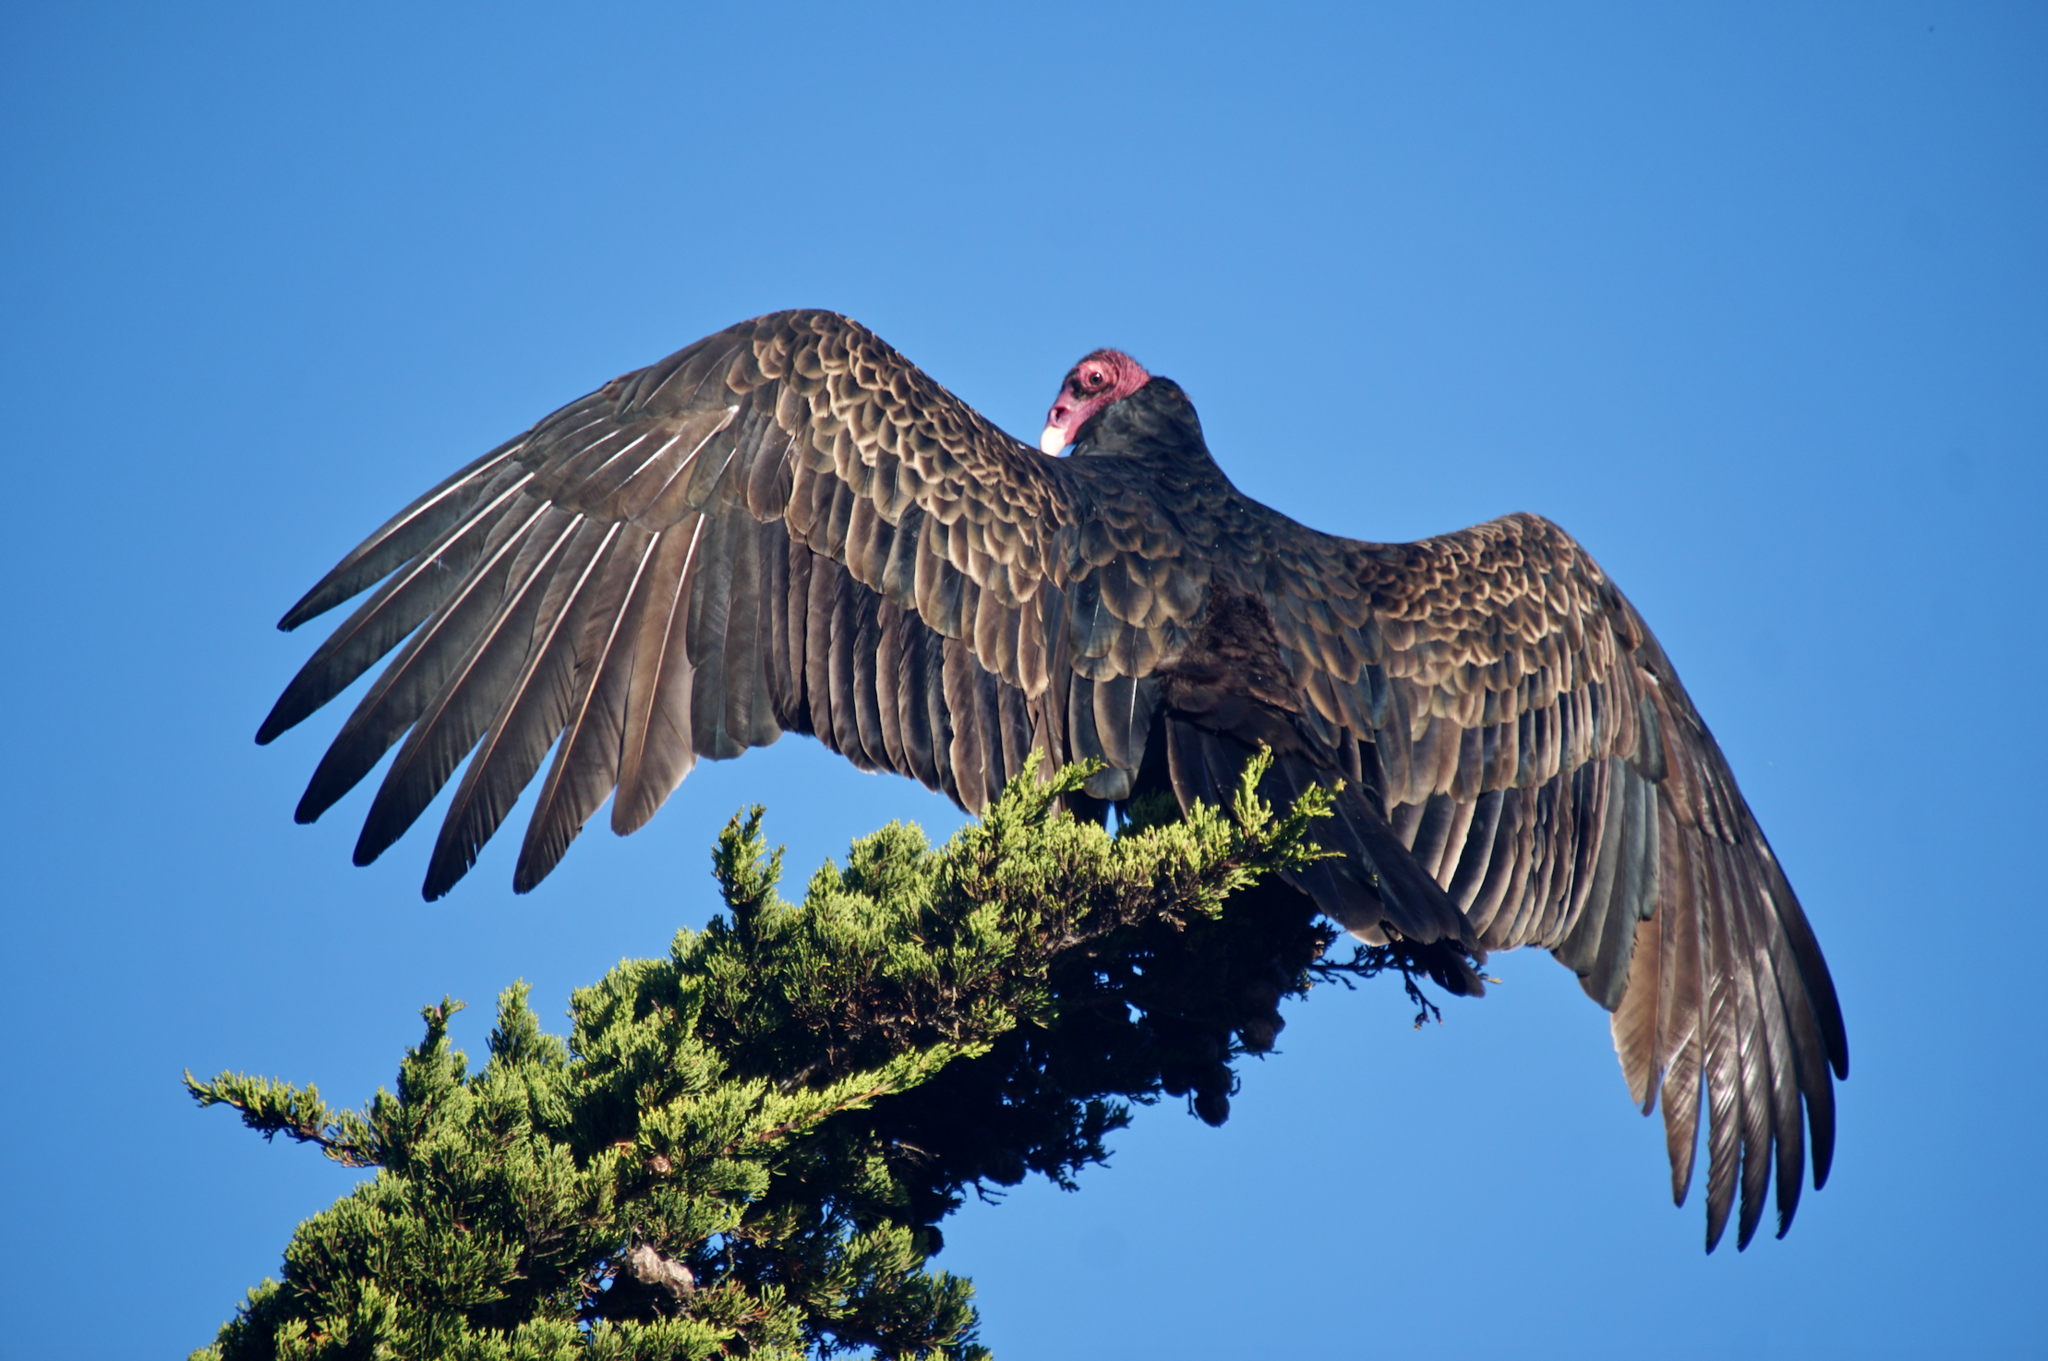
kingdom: Animalia
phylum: Chordata
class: Aves
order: Accipitriformes
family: Cathartidae
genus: Cathartes
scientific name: Cathartes aura
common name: Turkey vulture
